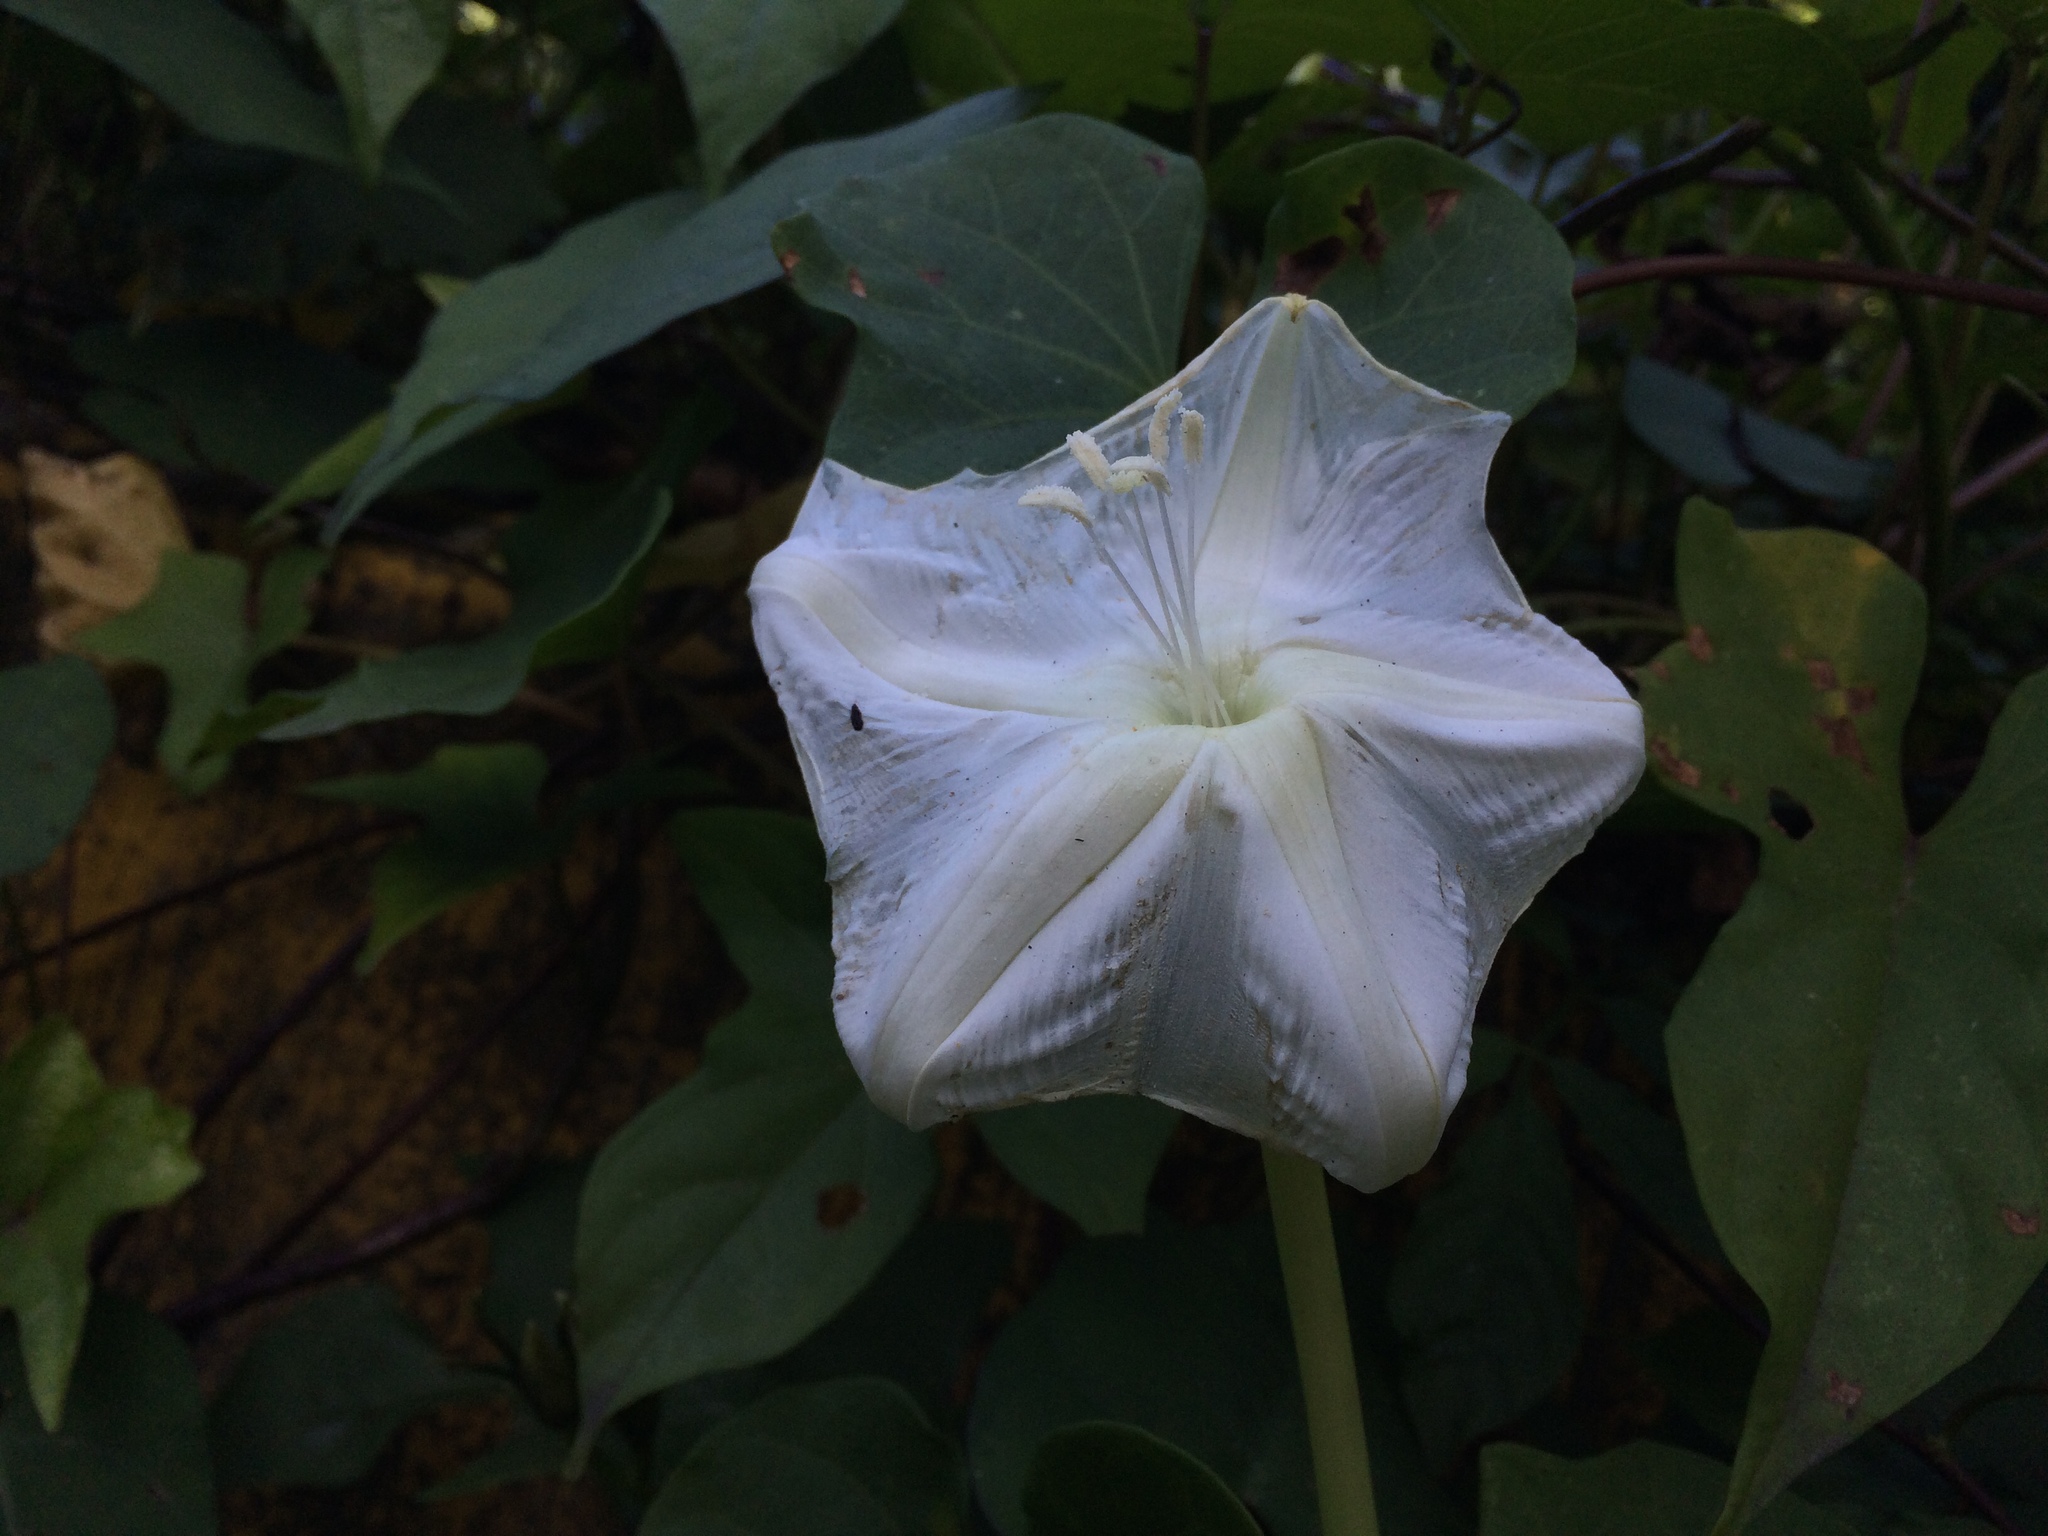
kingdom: Plantae
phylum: Tracheophyta
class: Magnoliopsida
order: Solanales
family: Convolvulaceae
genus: Ipomoea
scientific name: Ipomoea alba
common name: Moonflower
